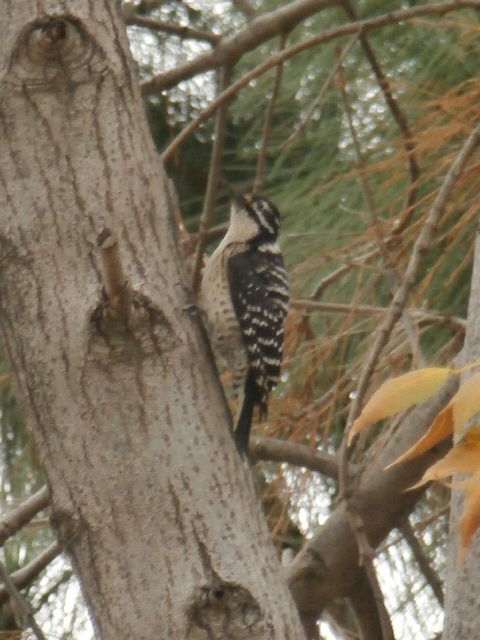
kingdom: Animalia
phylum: Chordata
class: Aves
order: Piciformes
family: Picidae
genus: Dryobates
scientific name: Dryobates nuttallii
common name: Nuttall's woodpecker
